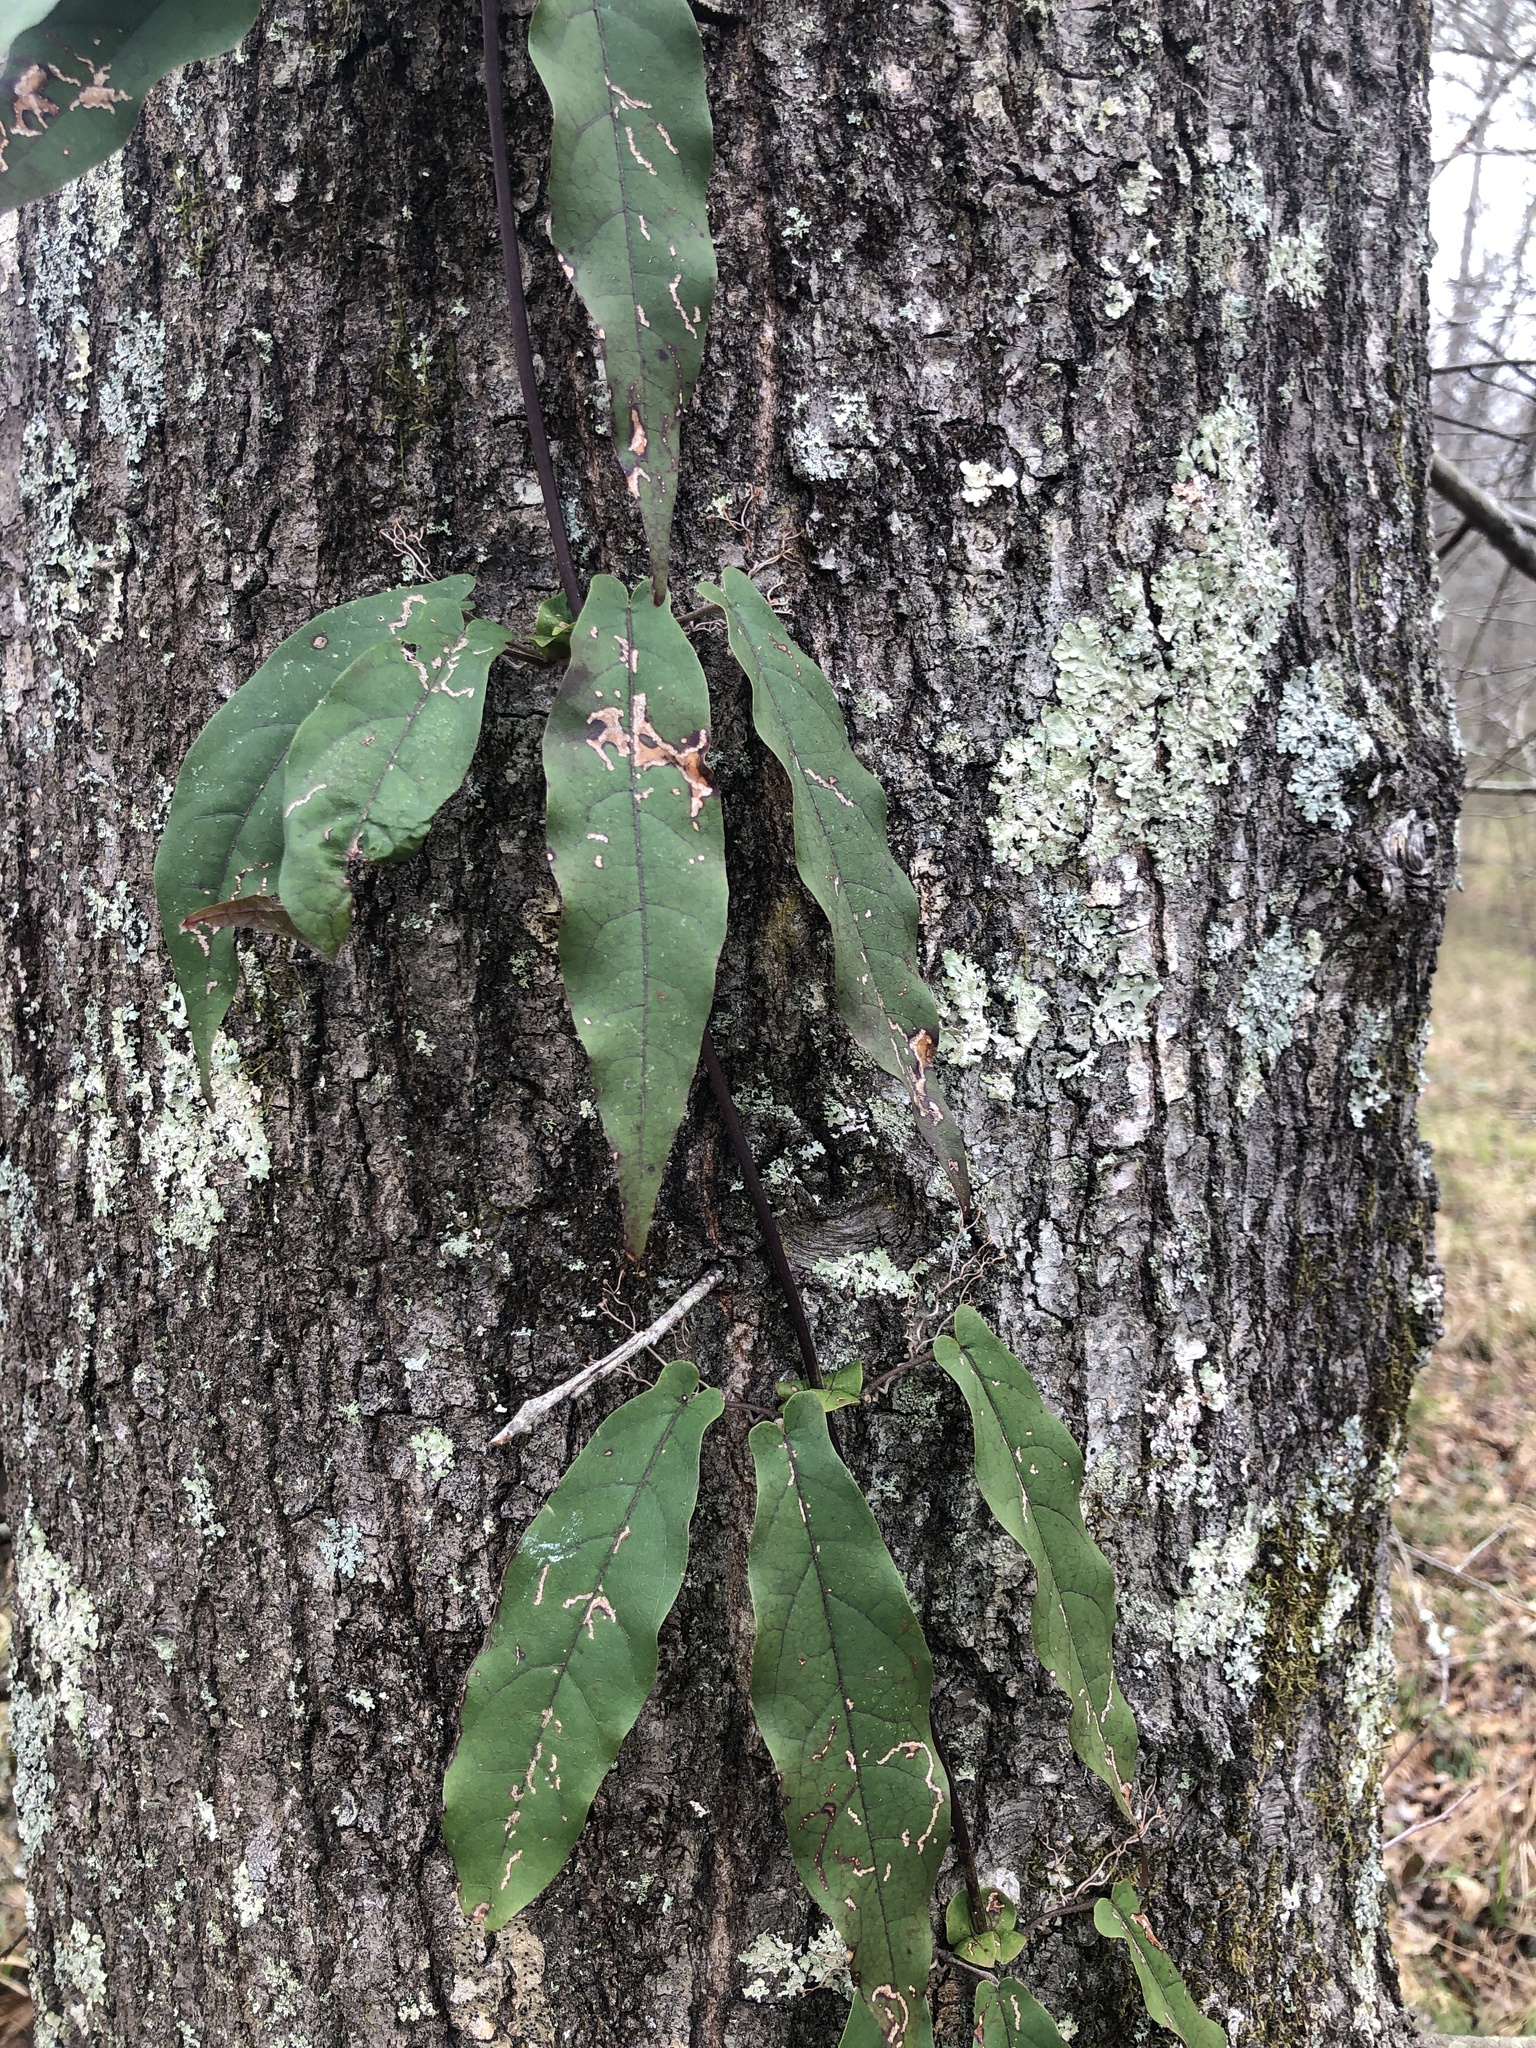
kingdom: Plantae
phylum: Tracheophyta
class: Magnoliopsida
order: Lamiales
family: Bignoniaceae
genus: Bignonia
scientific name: Bignonia capreolata
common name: Crossvine
